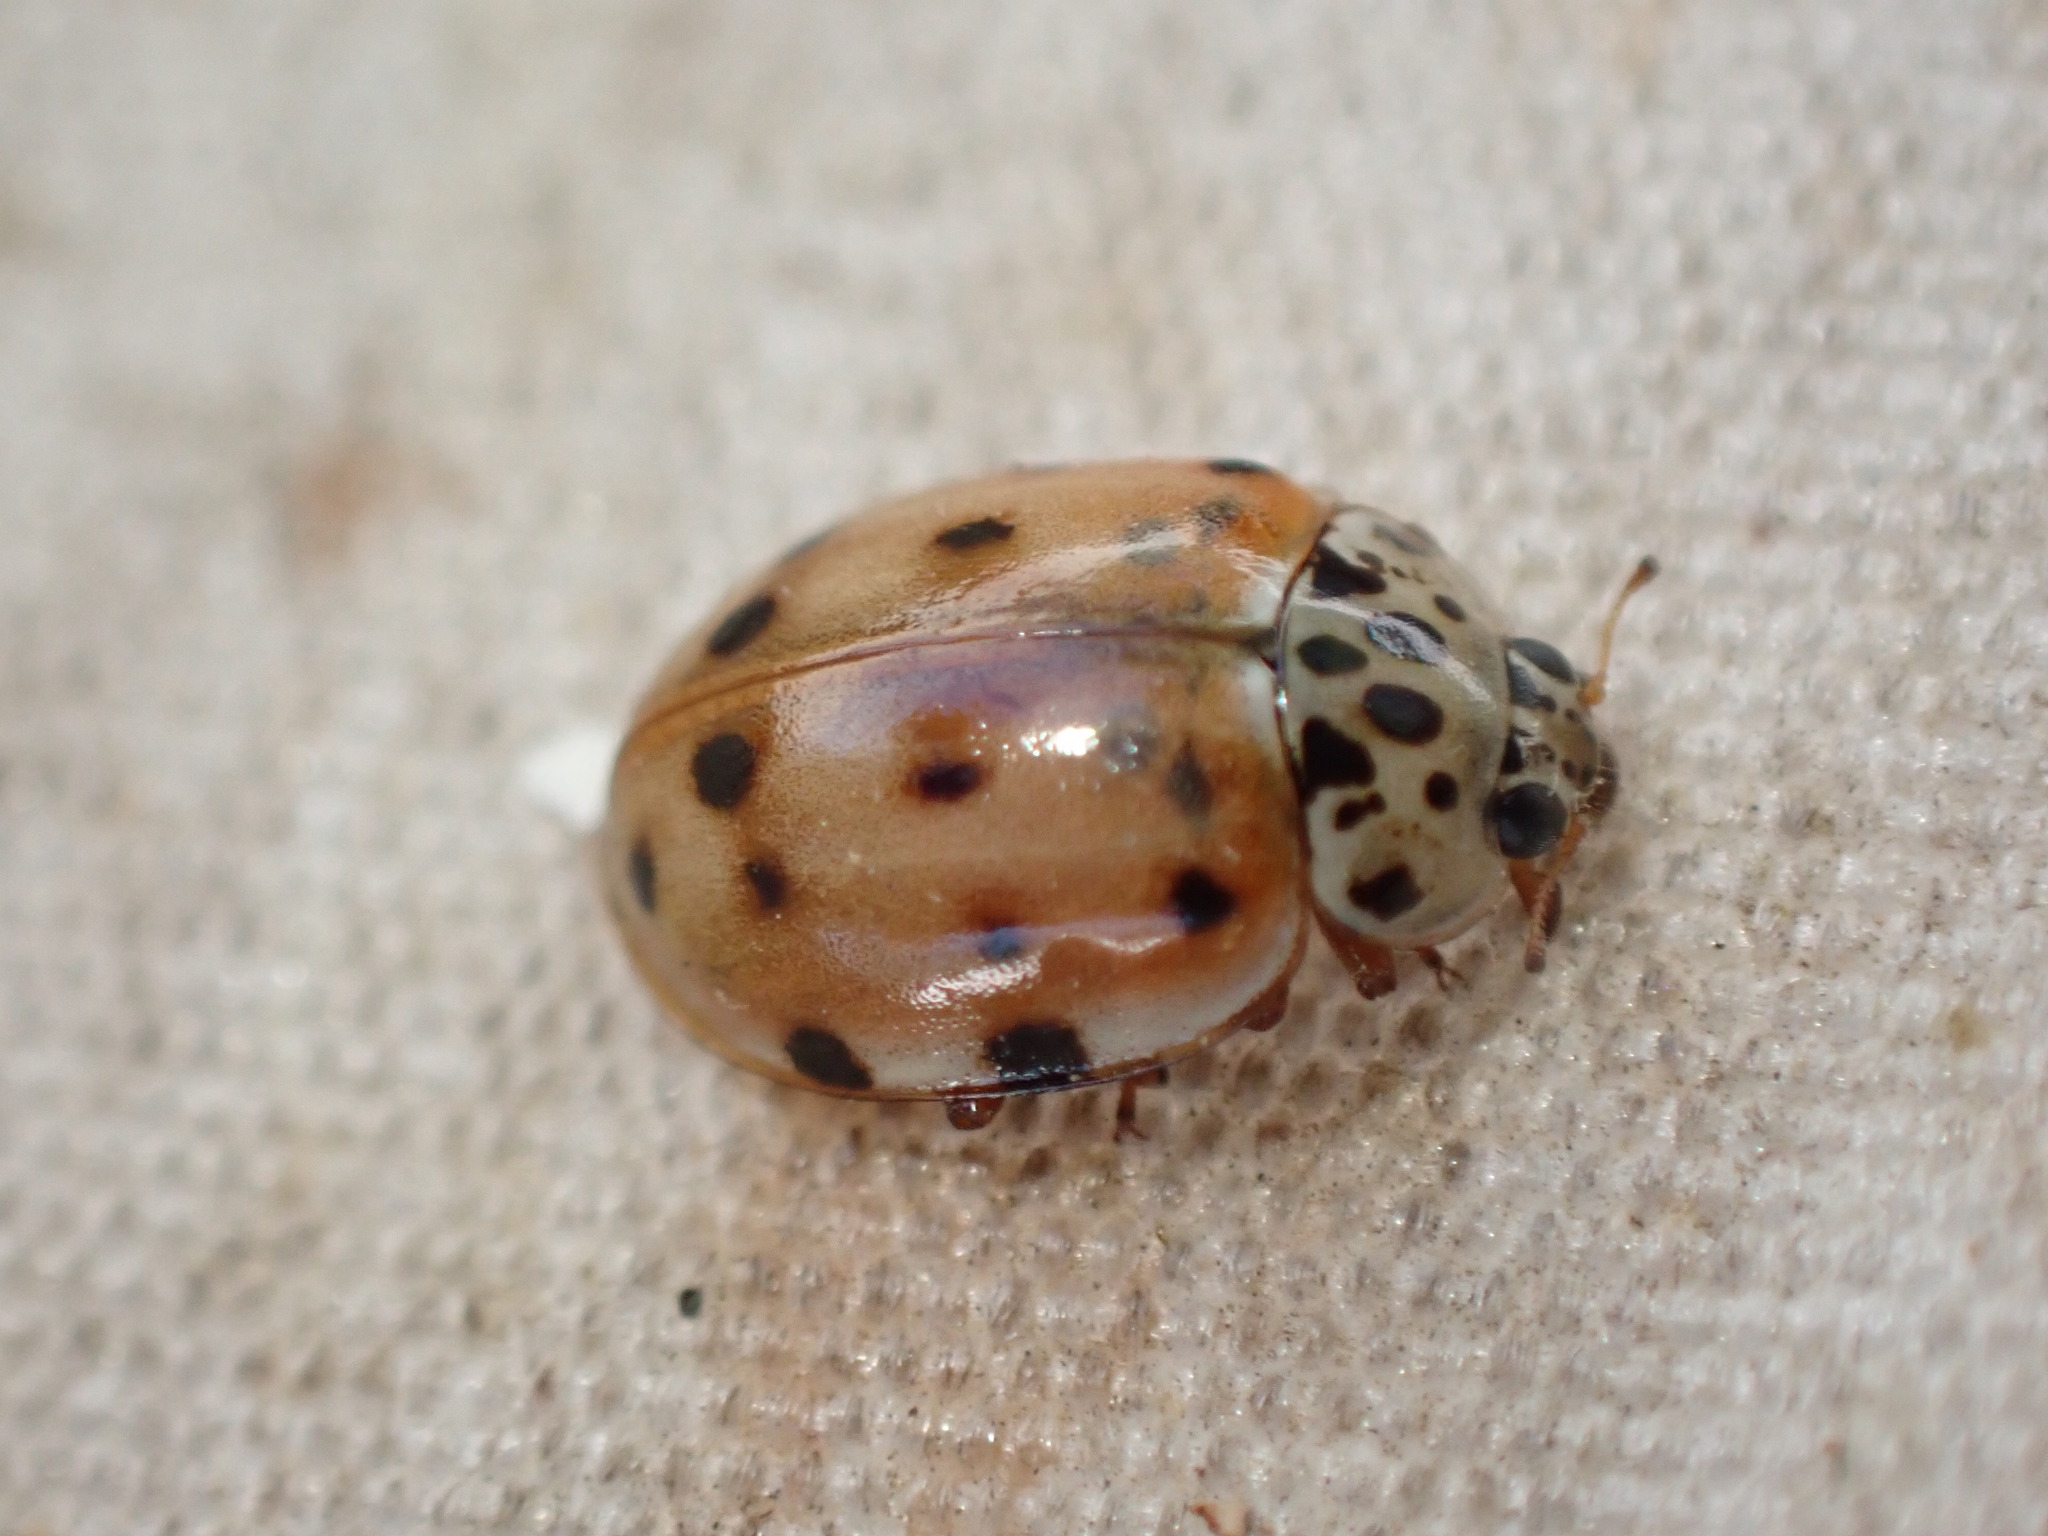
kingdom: Animalia
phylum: Arthropoda
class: Insecta
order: Coleoptera
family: Coccinellidae
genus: Harmonia
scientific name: Harmonia quadripunctata
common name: Cream-streaked ladybird
